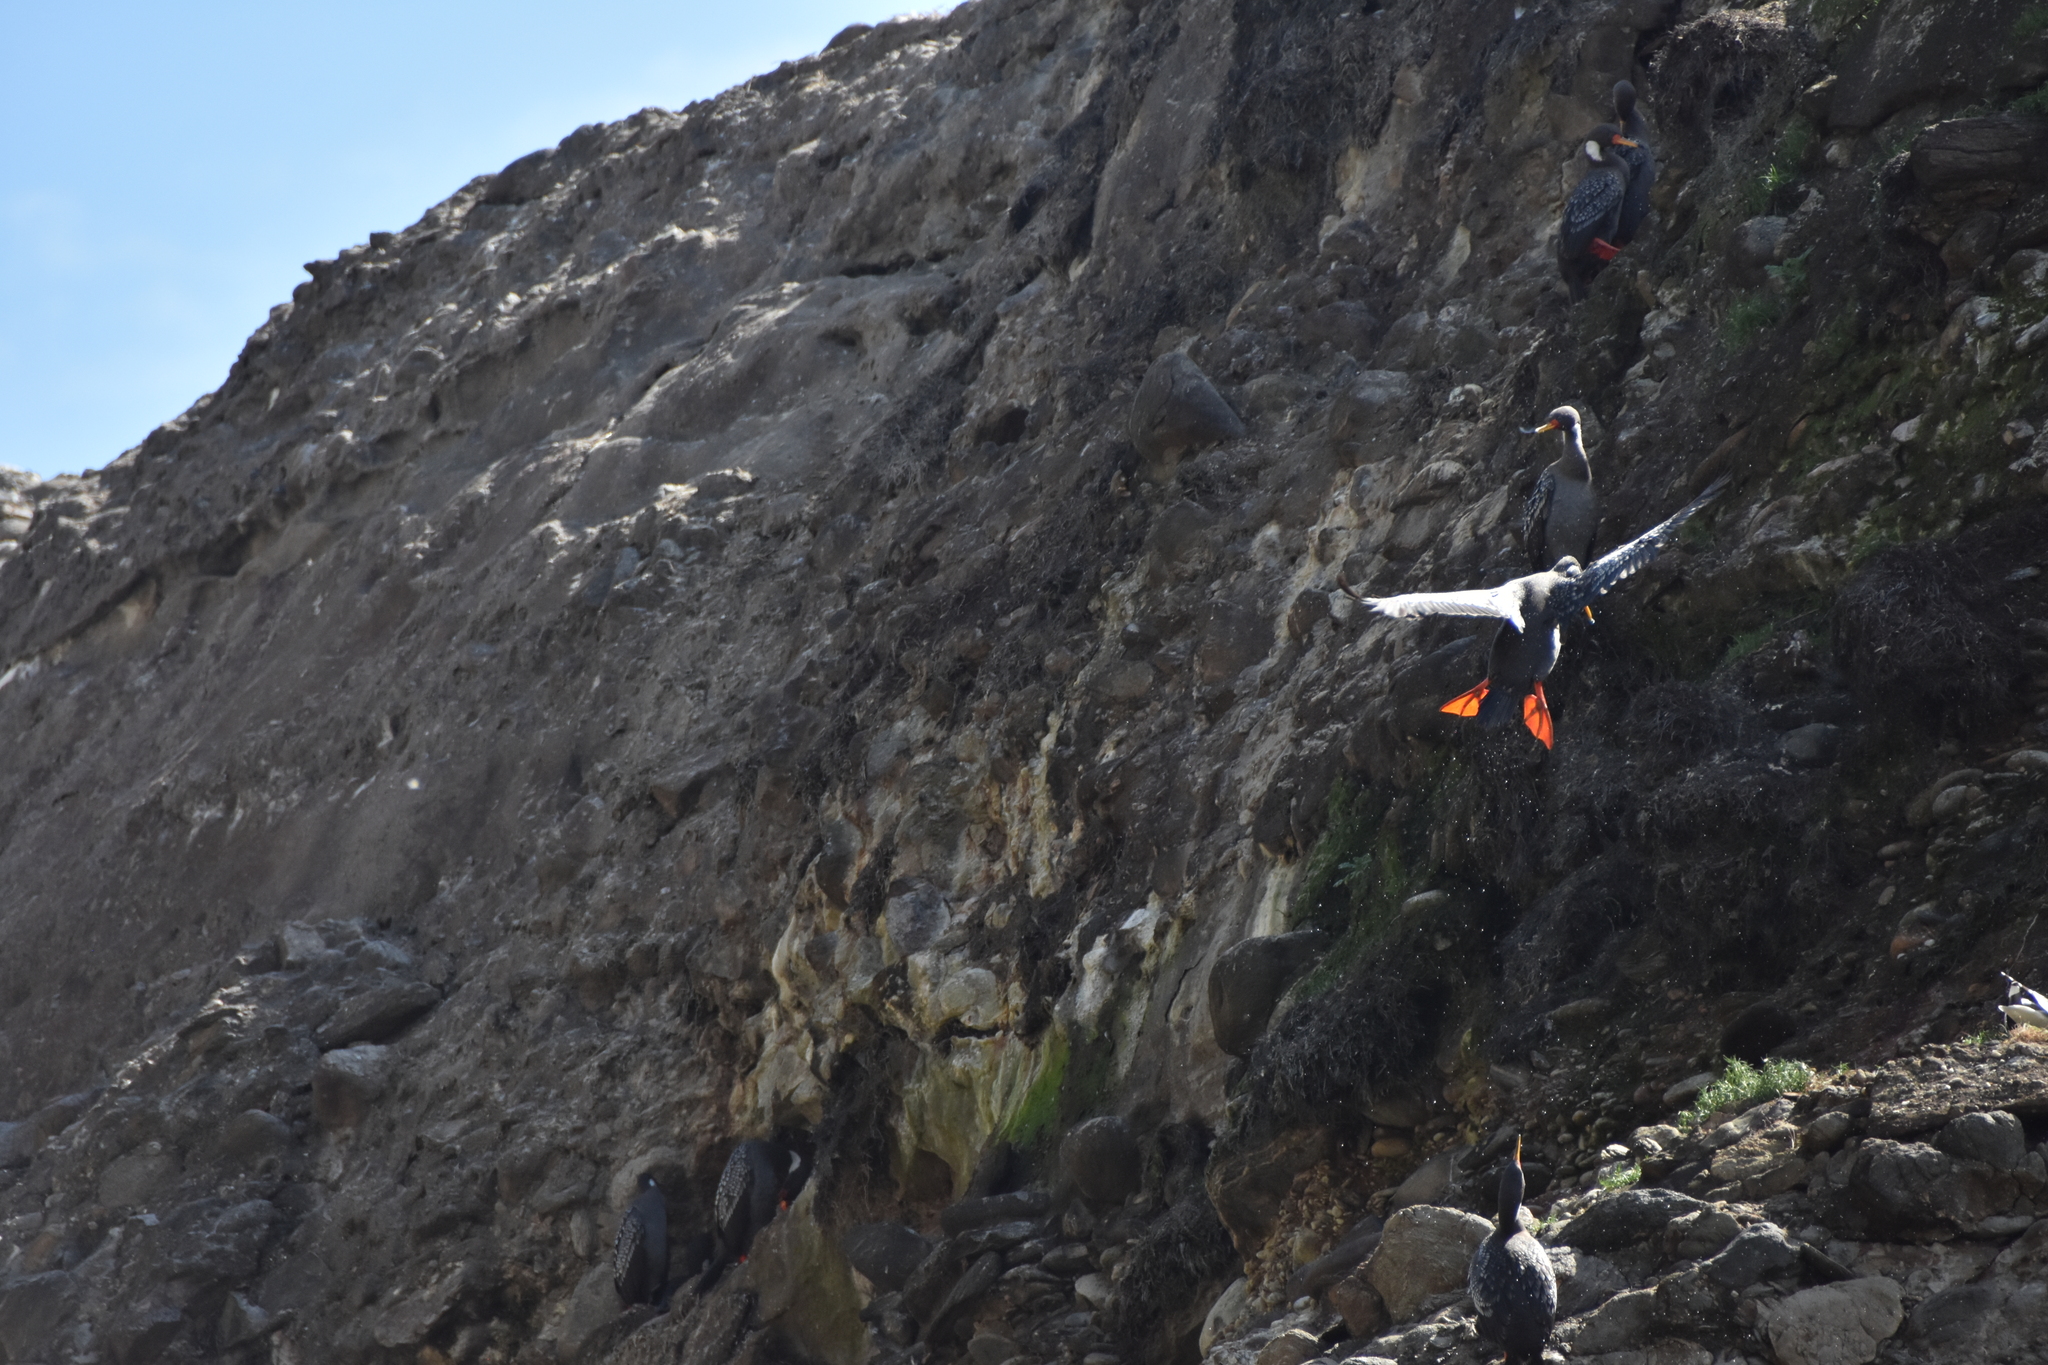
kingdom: Animalia
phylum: Chordata
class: Aves
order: Suliformes
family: Phalacrocoracidae
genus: Phalacrocorax
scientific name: Phalacrocorax gaimardi
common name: Red-legged cormorant
